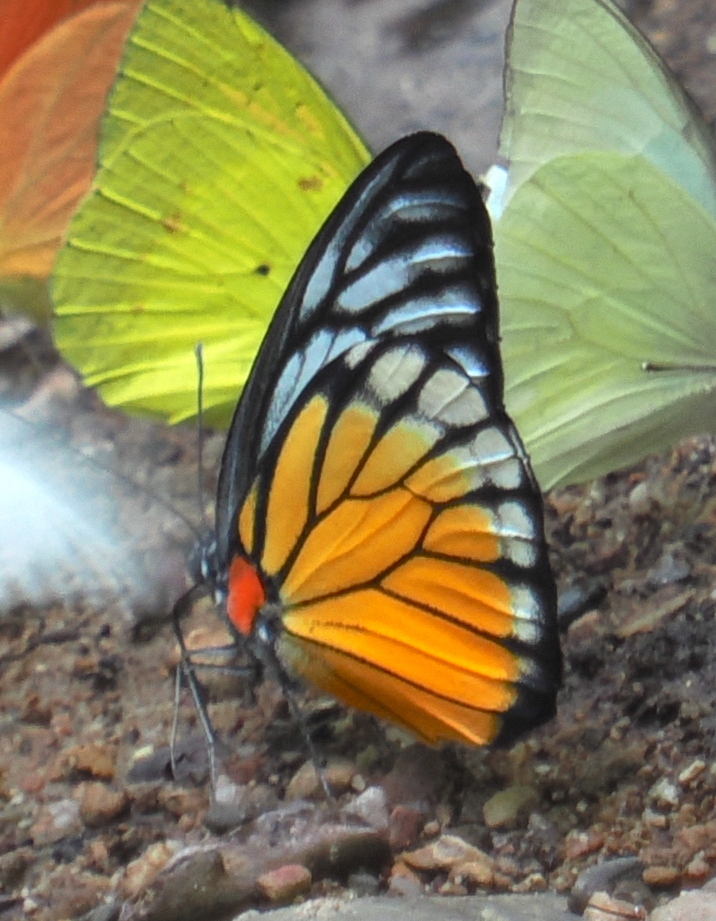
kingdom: Animalia
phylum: Arthropoda
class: Insecta
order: Lepidoptera
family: Pieridae
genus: Prioneris
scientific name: Prioneris philonome
